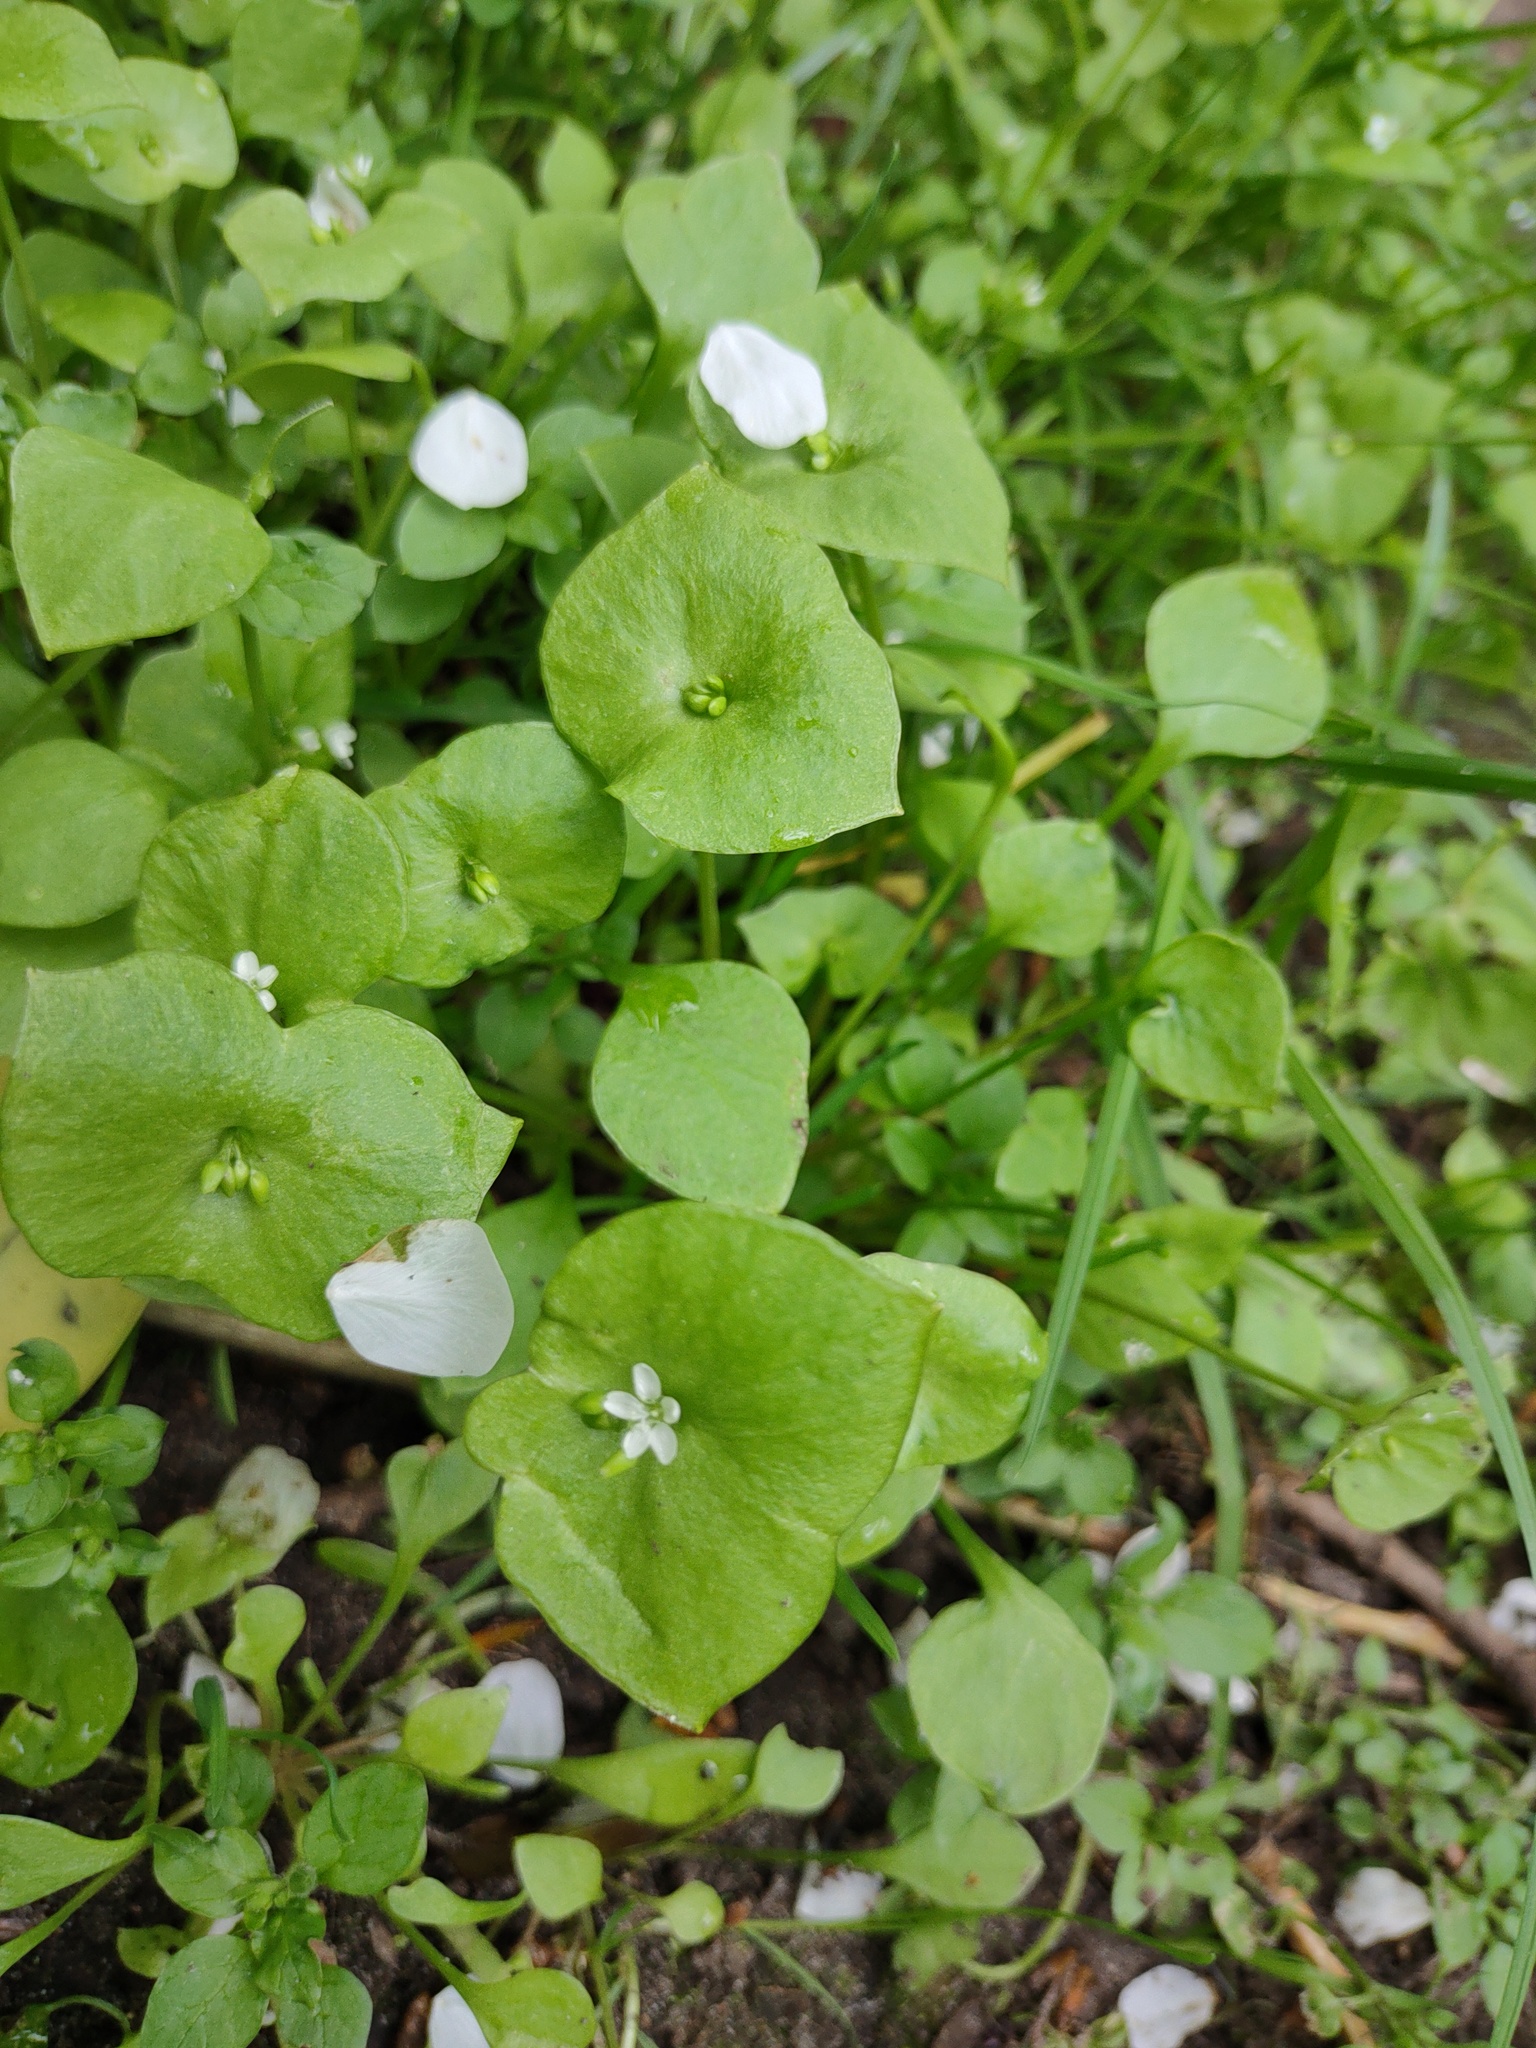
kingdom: Plantae
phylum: Tracheophyta
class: Magnoliopsida
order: Caryophyllales
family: Montiaceae
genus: Claytonia
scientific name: Claytonia perfoliata
